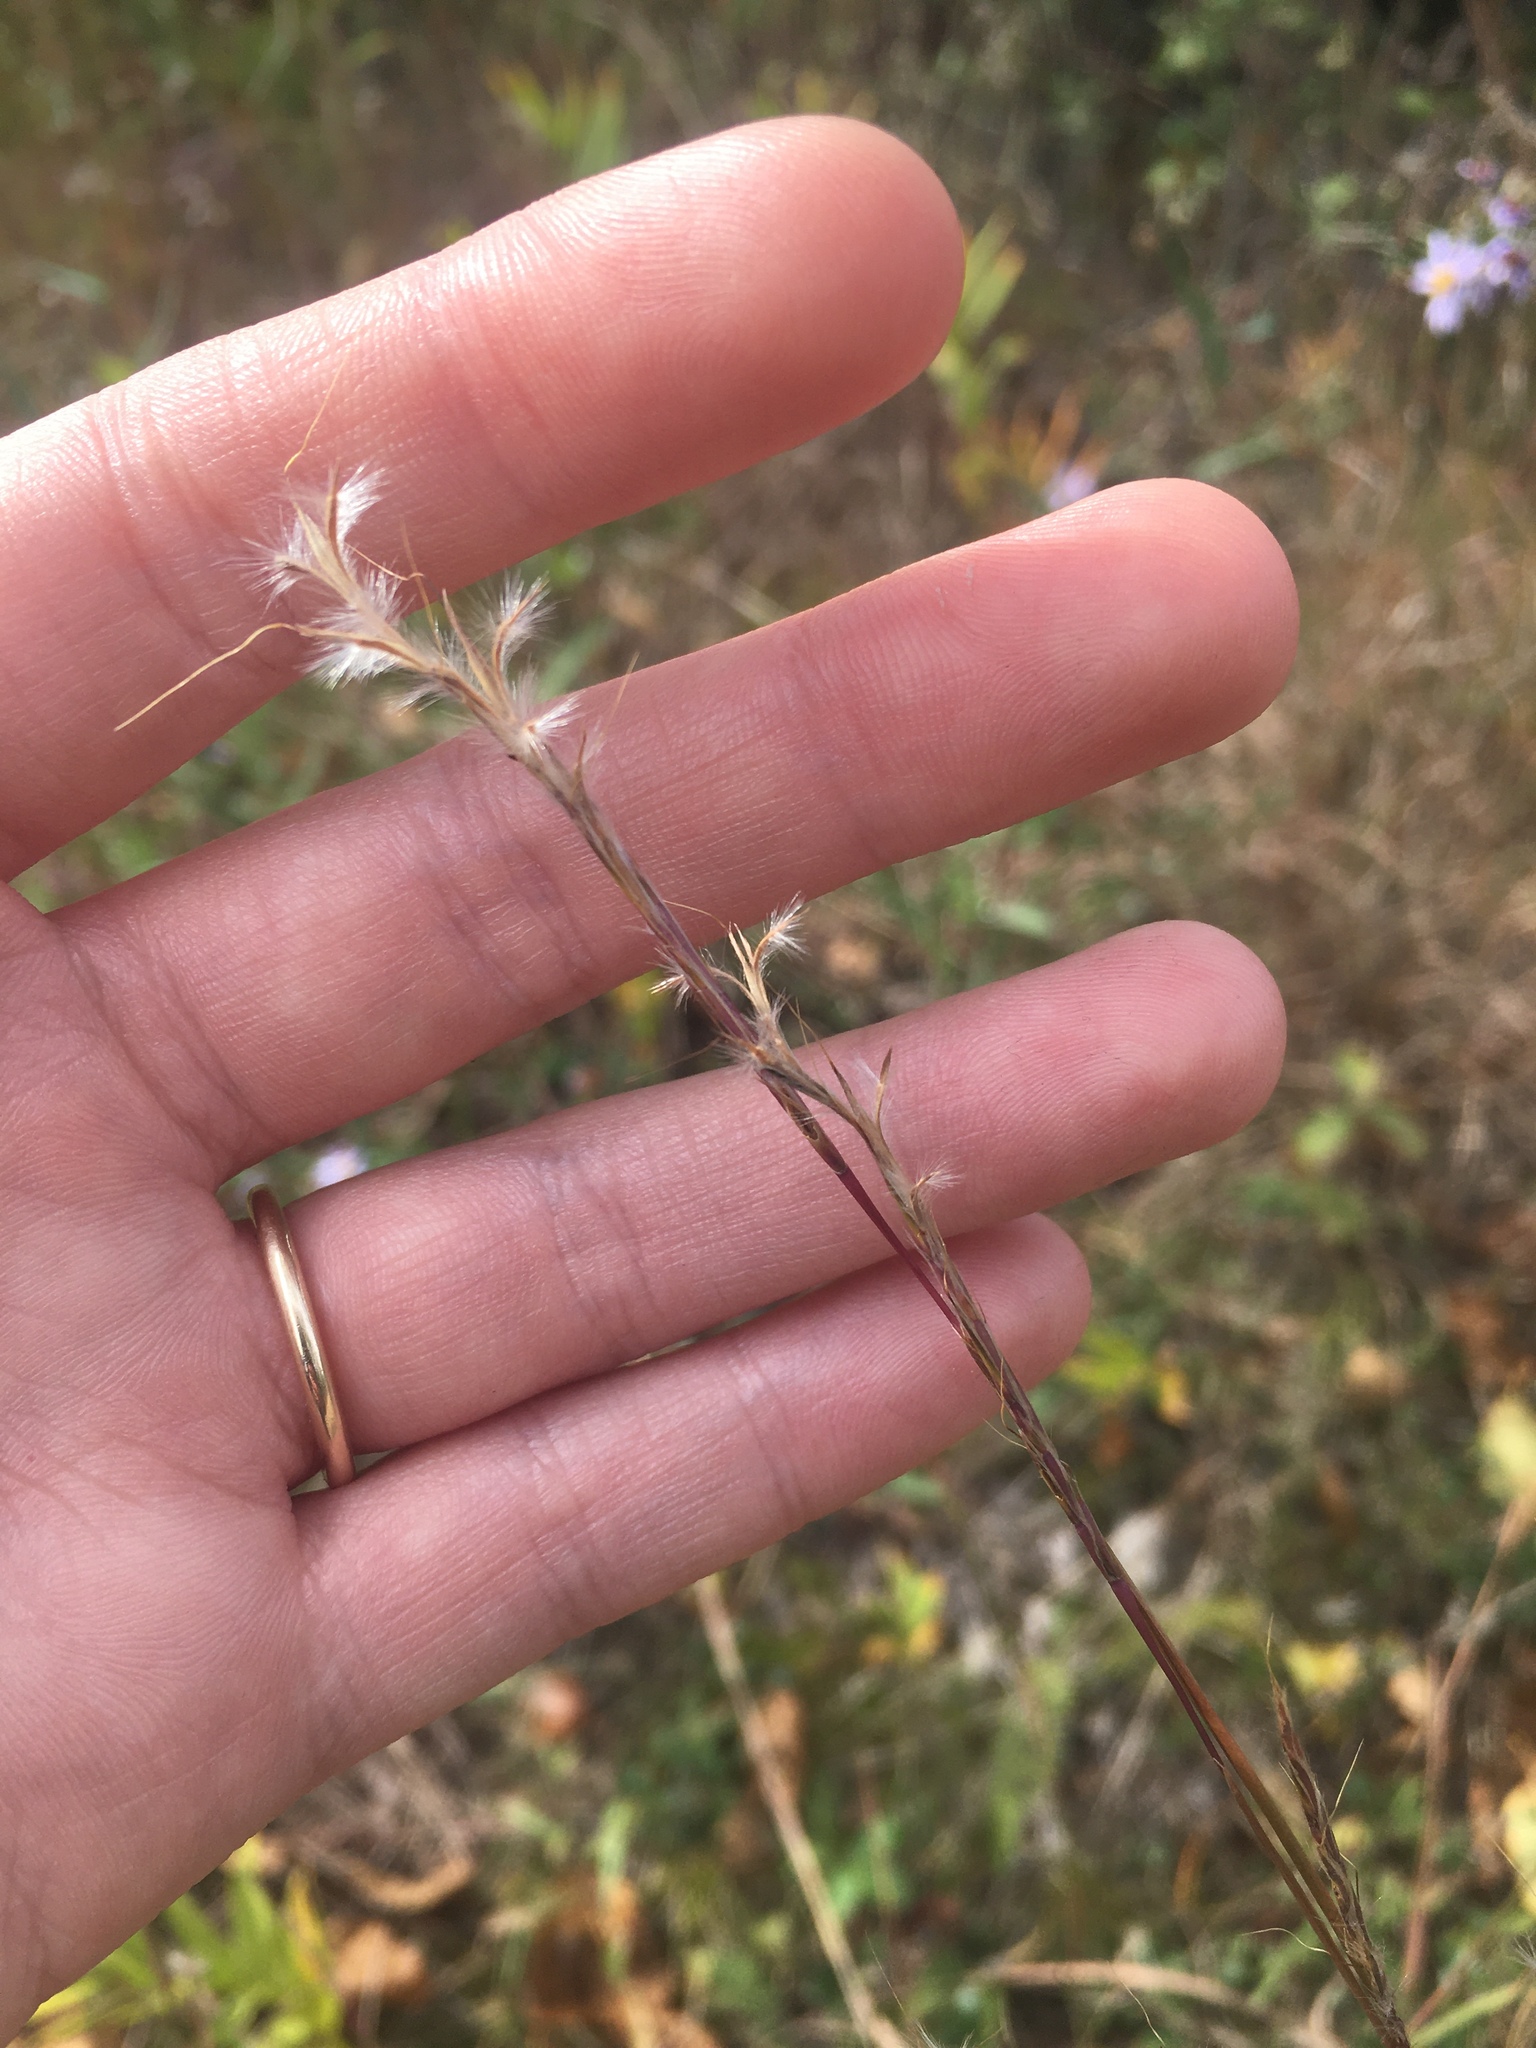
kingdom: Plantae
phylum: Tracheophyta
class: Liliopsida
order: Poales
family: Poaceae
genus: Schizachyrium
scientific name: Schizachyrium scoparium
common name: Little bluestem
